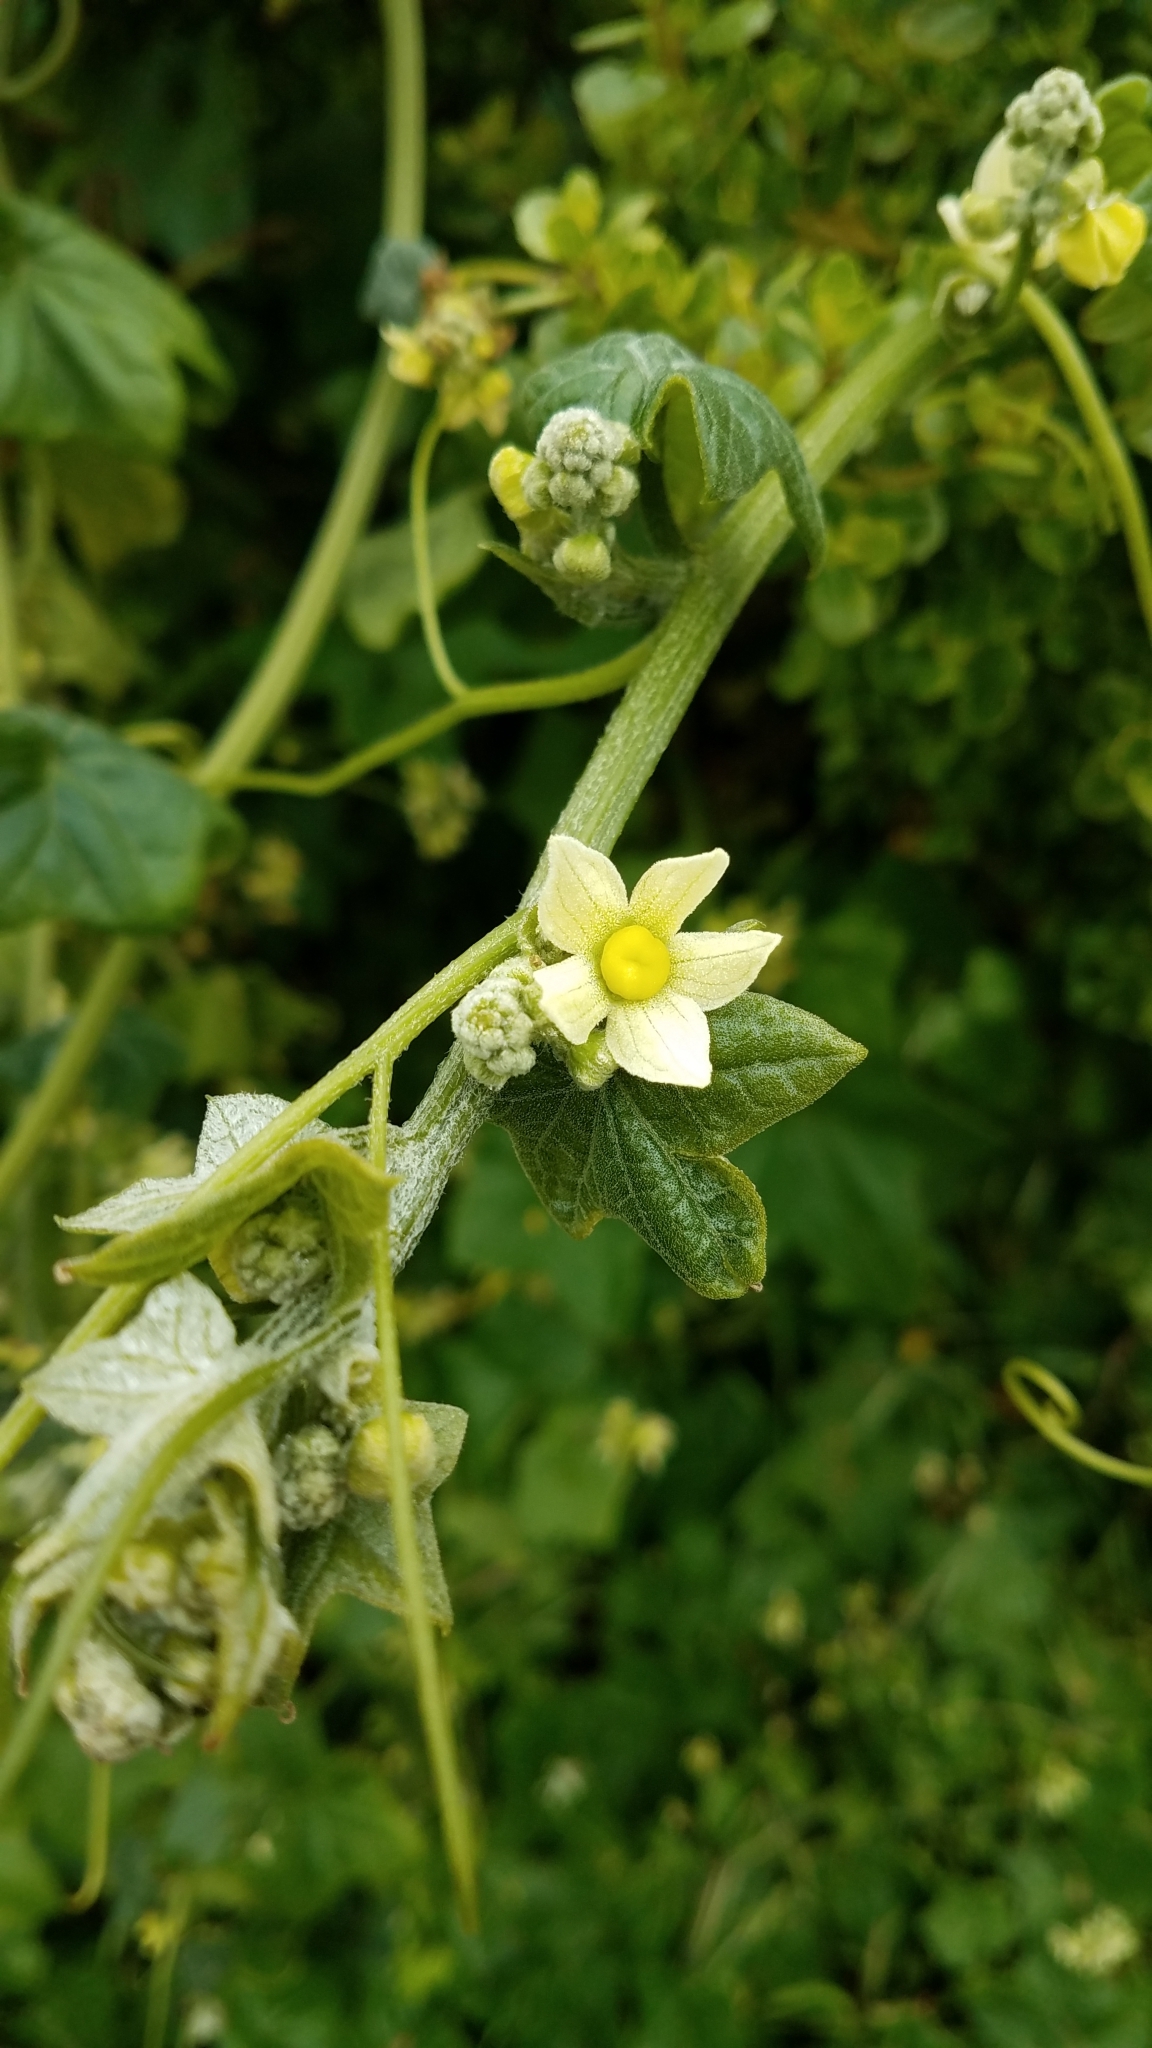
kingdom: Plantae
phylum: Tracheophyta
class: Magnoliopsida
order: Cucurbitales
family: Cucurbitaceae
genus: Marah
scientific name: Marah fabacea
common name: California manroot
